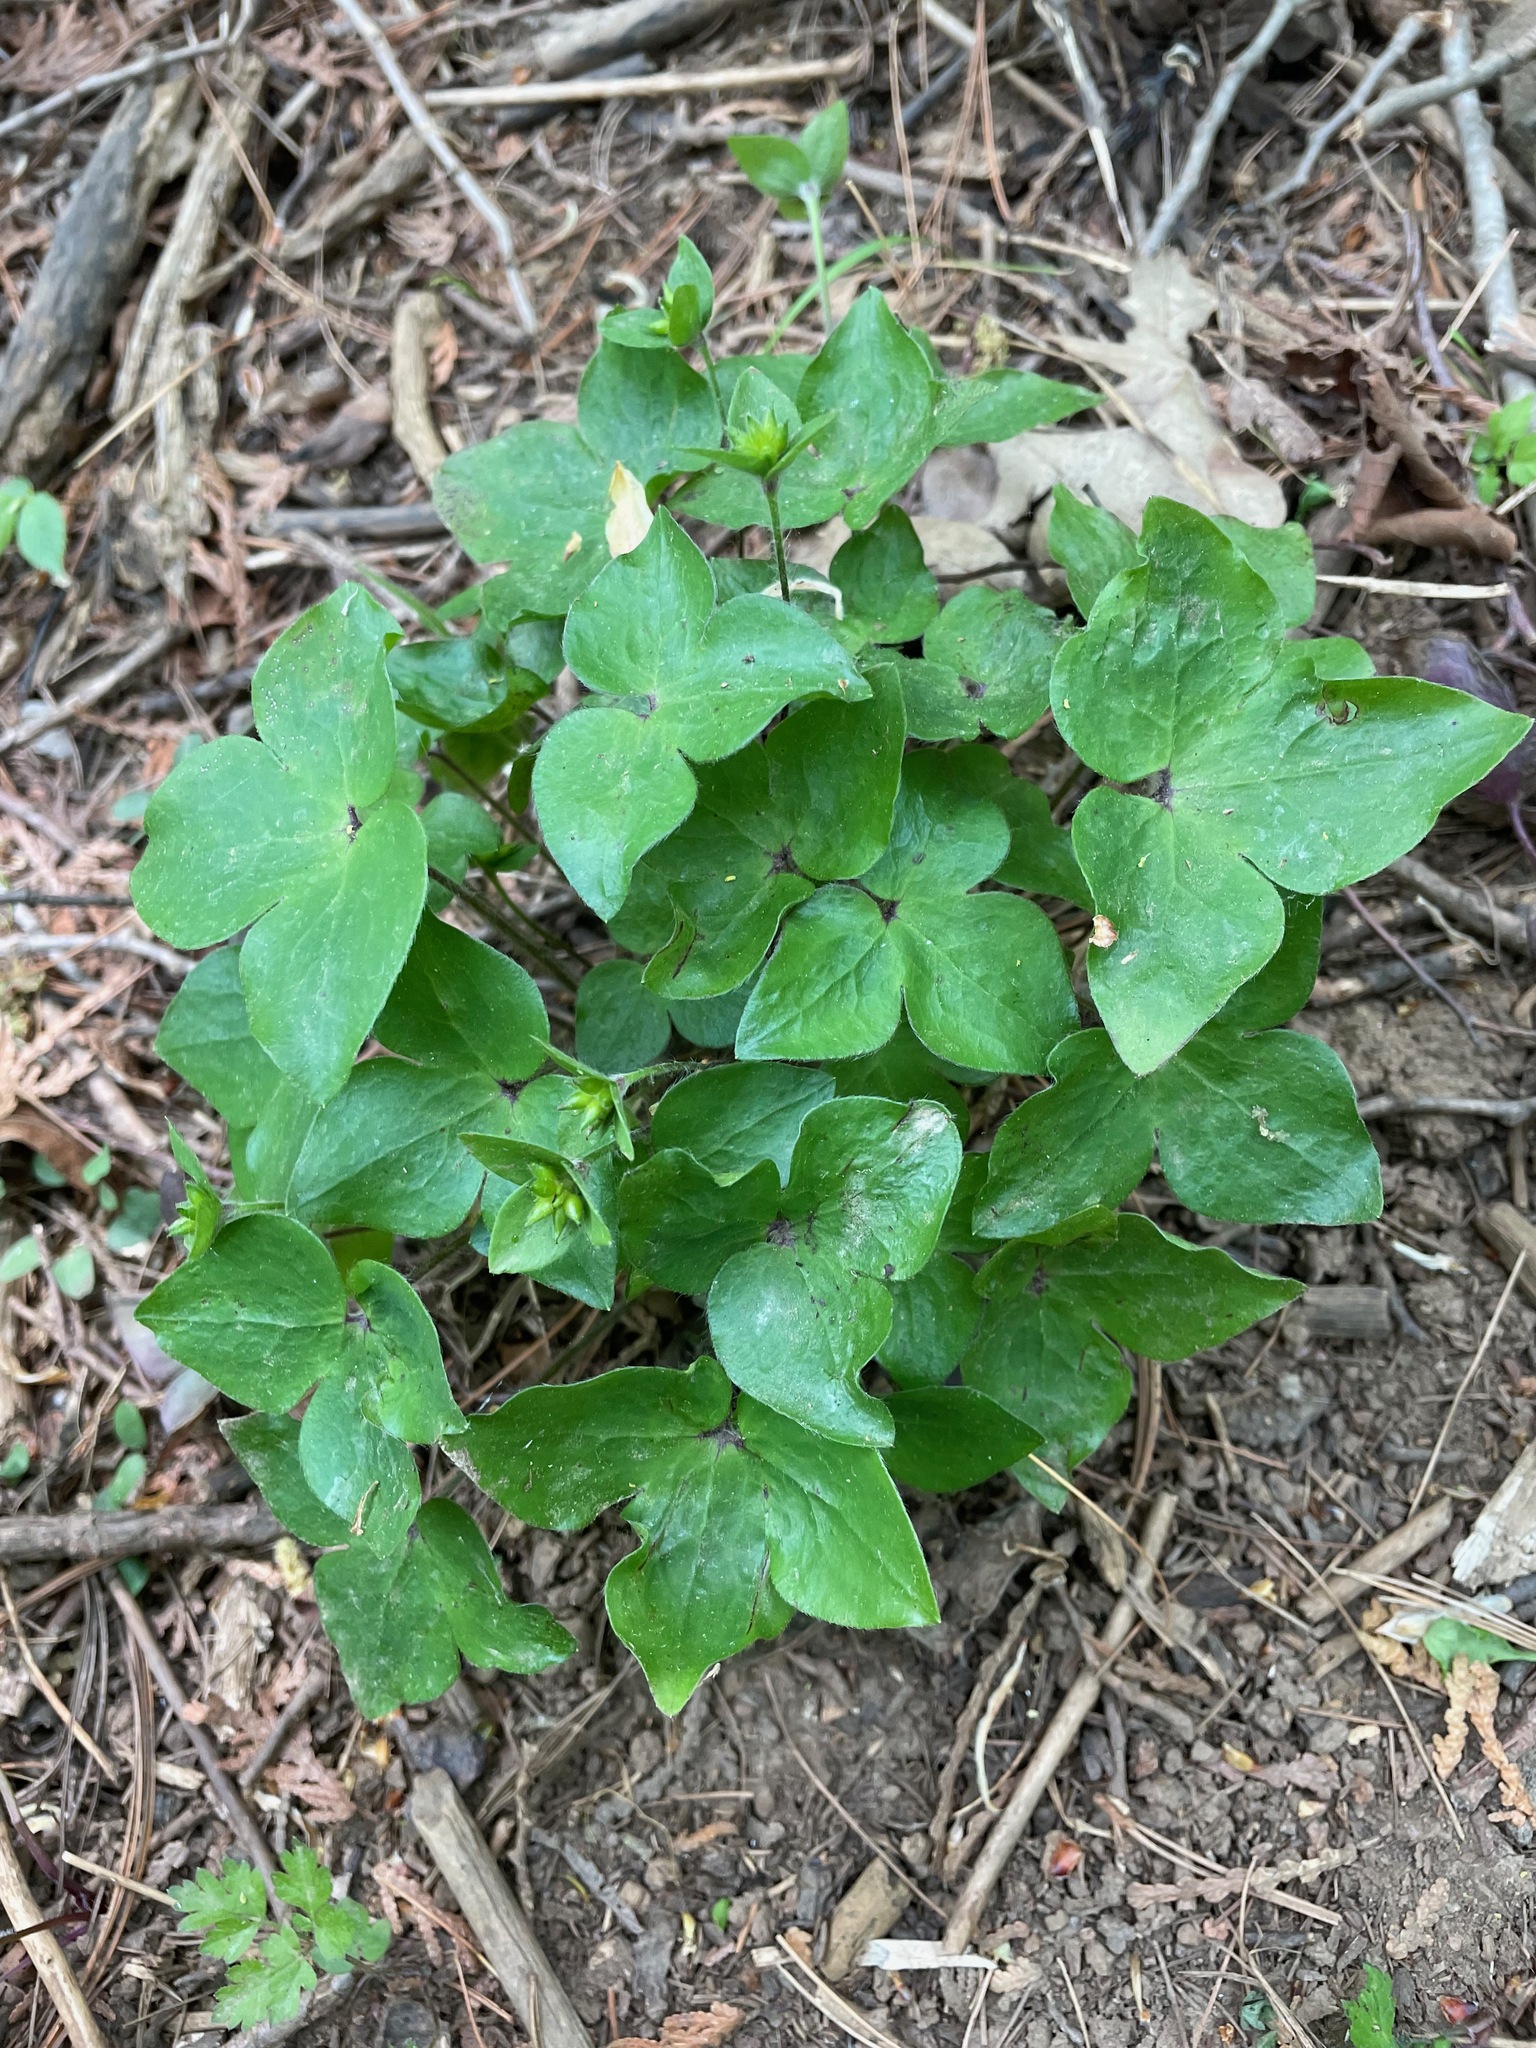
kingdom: Plantae
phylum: Tracheophyta
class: Magnoliopsida
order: Ranunculales
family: Ranunculaceae
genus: Hepatica
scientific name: Hepatica acutiloba
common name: Sharp-lobed hepatica
